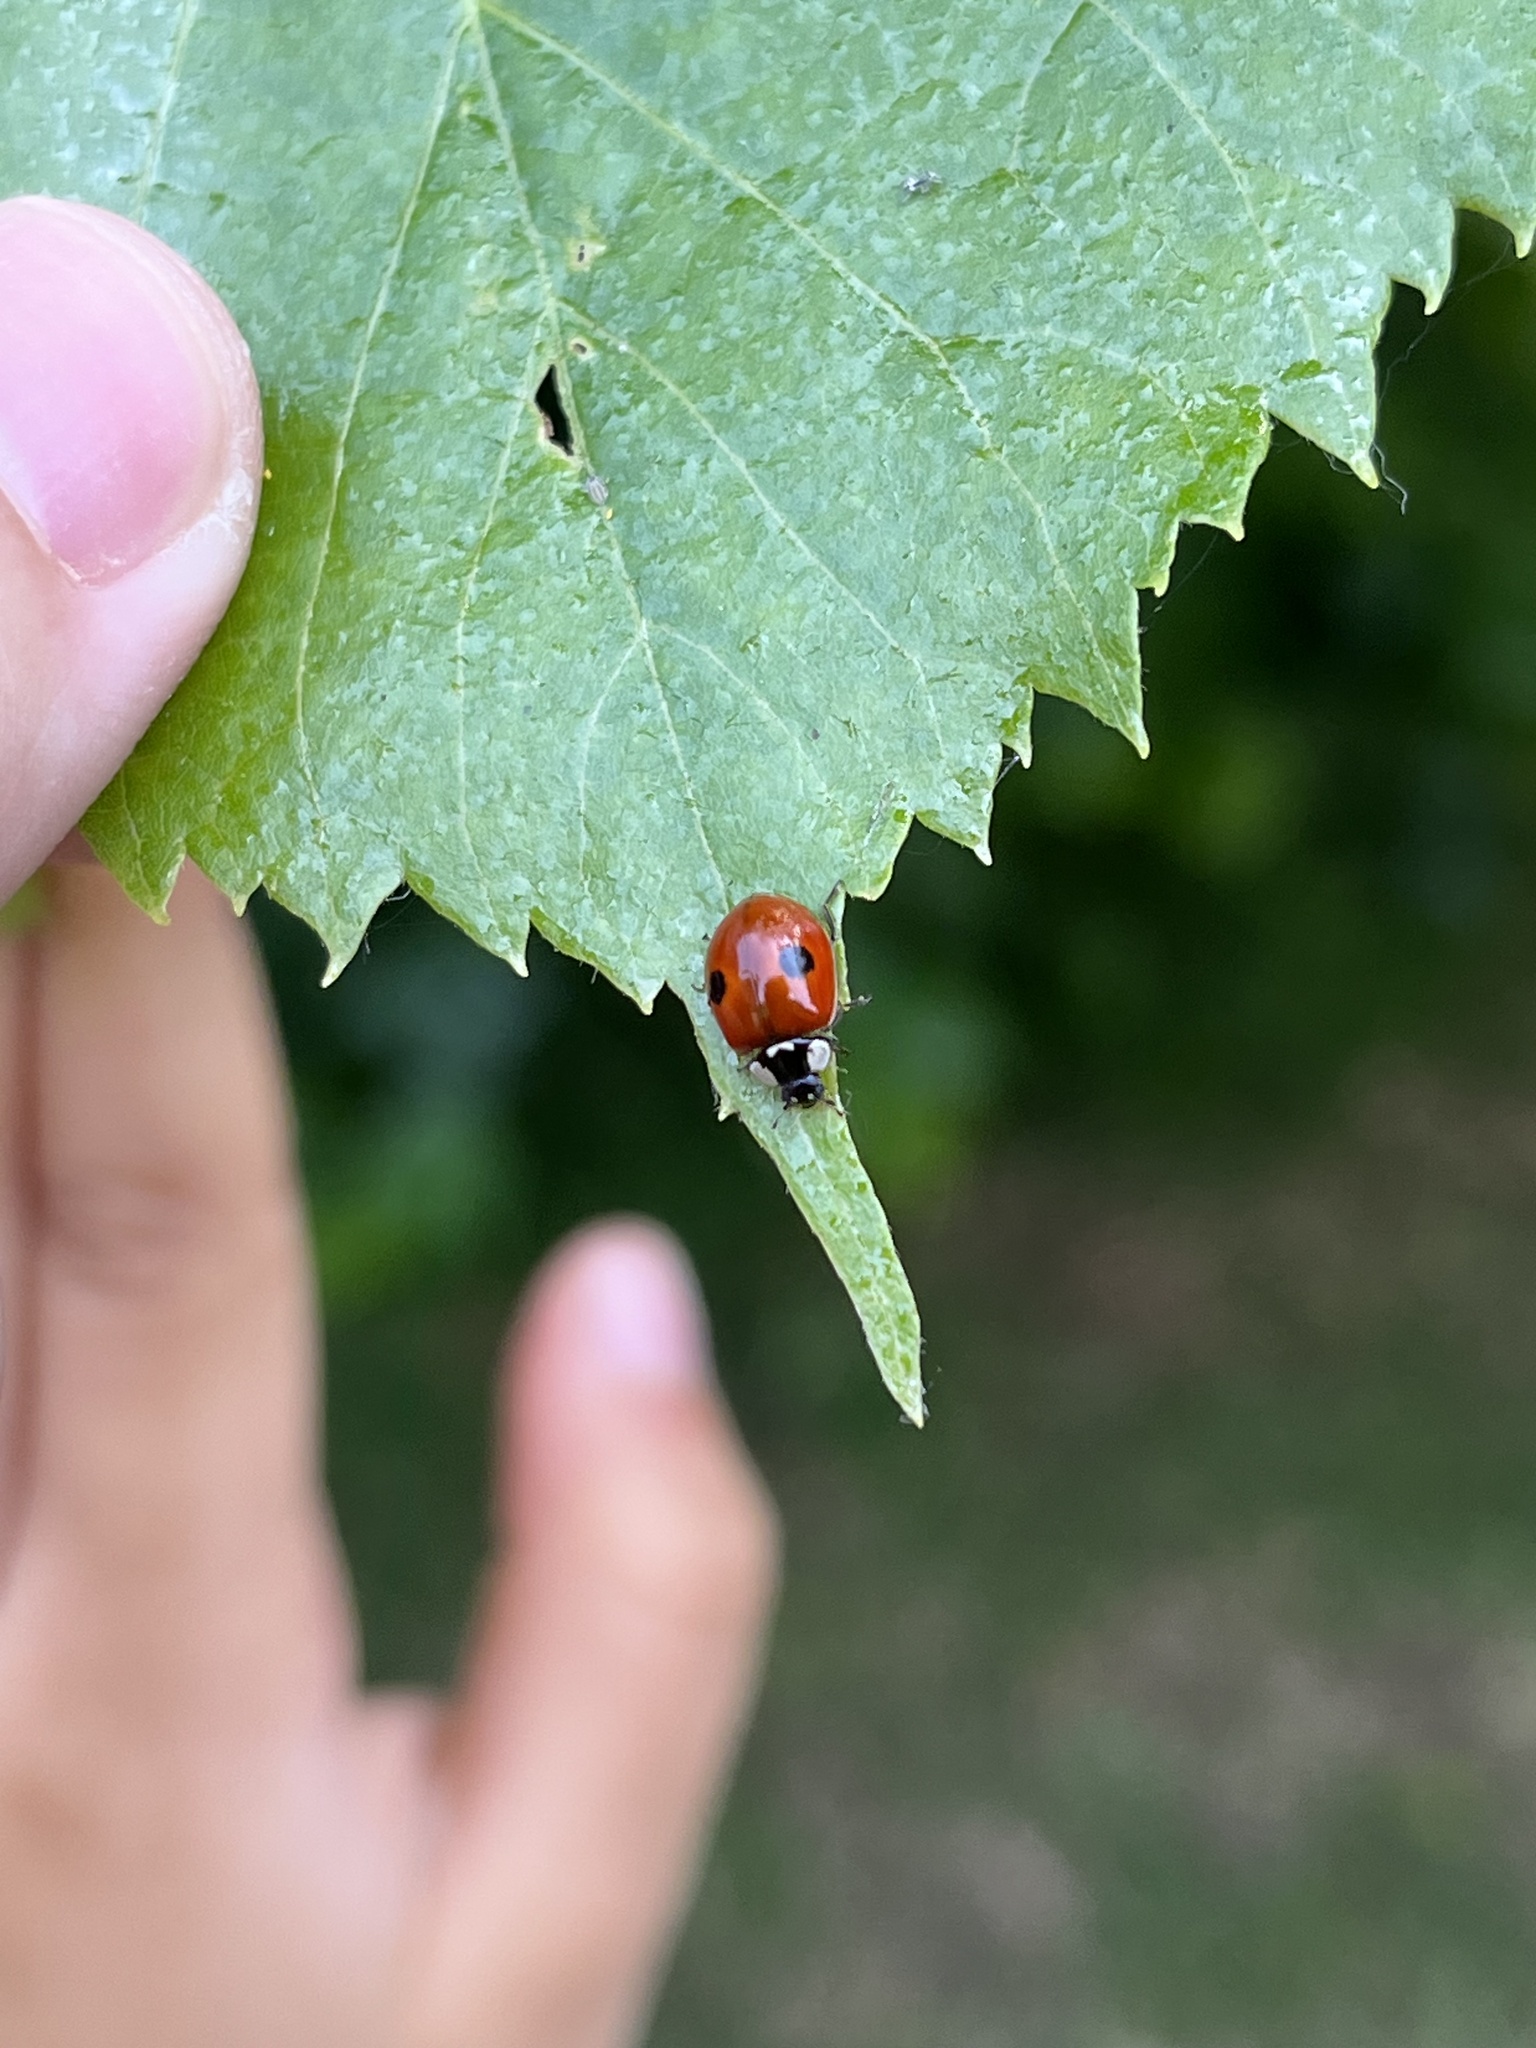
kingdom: Animalia
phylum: Arthropoda
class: Insecta
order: Coleoptera
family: Coccinellidae
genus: Adalia
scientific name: Adalia bipunctata
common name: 2-spot ladybird
